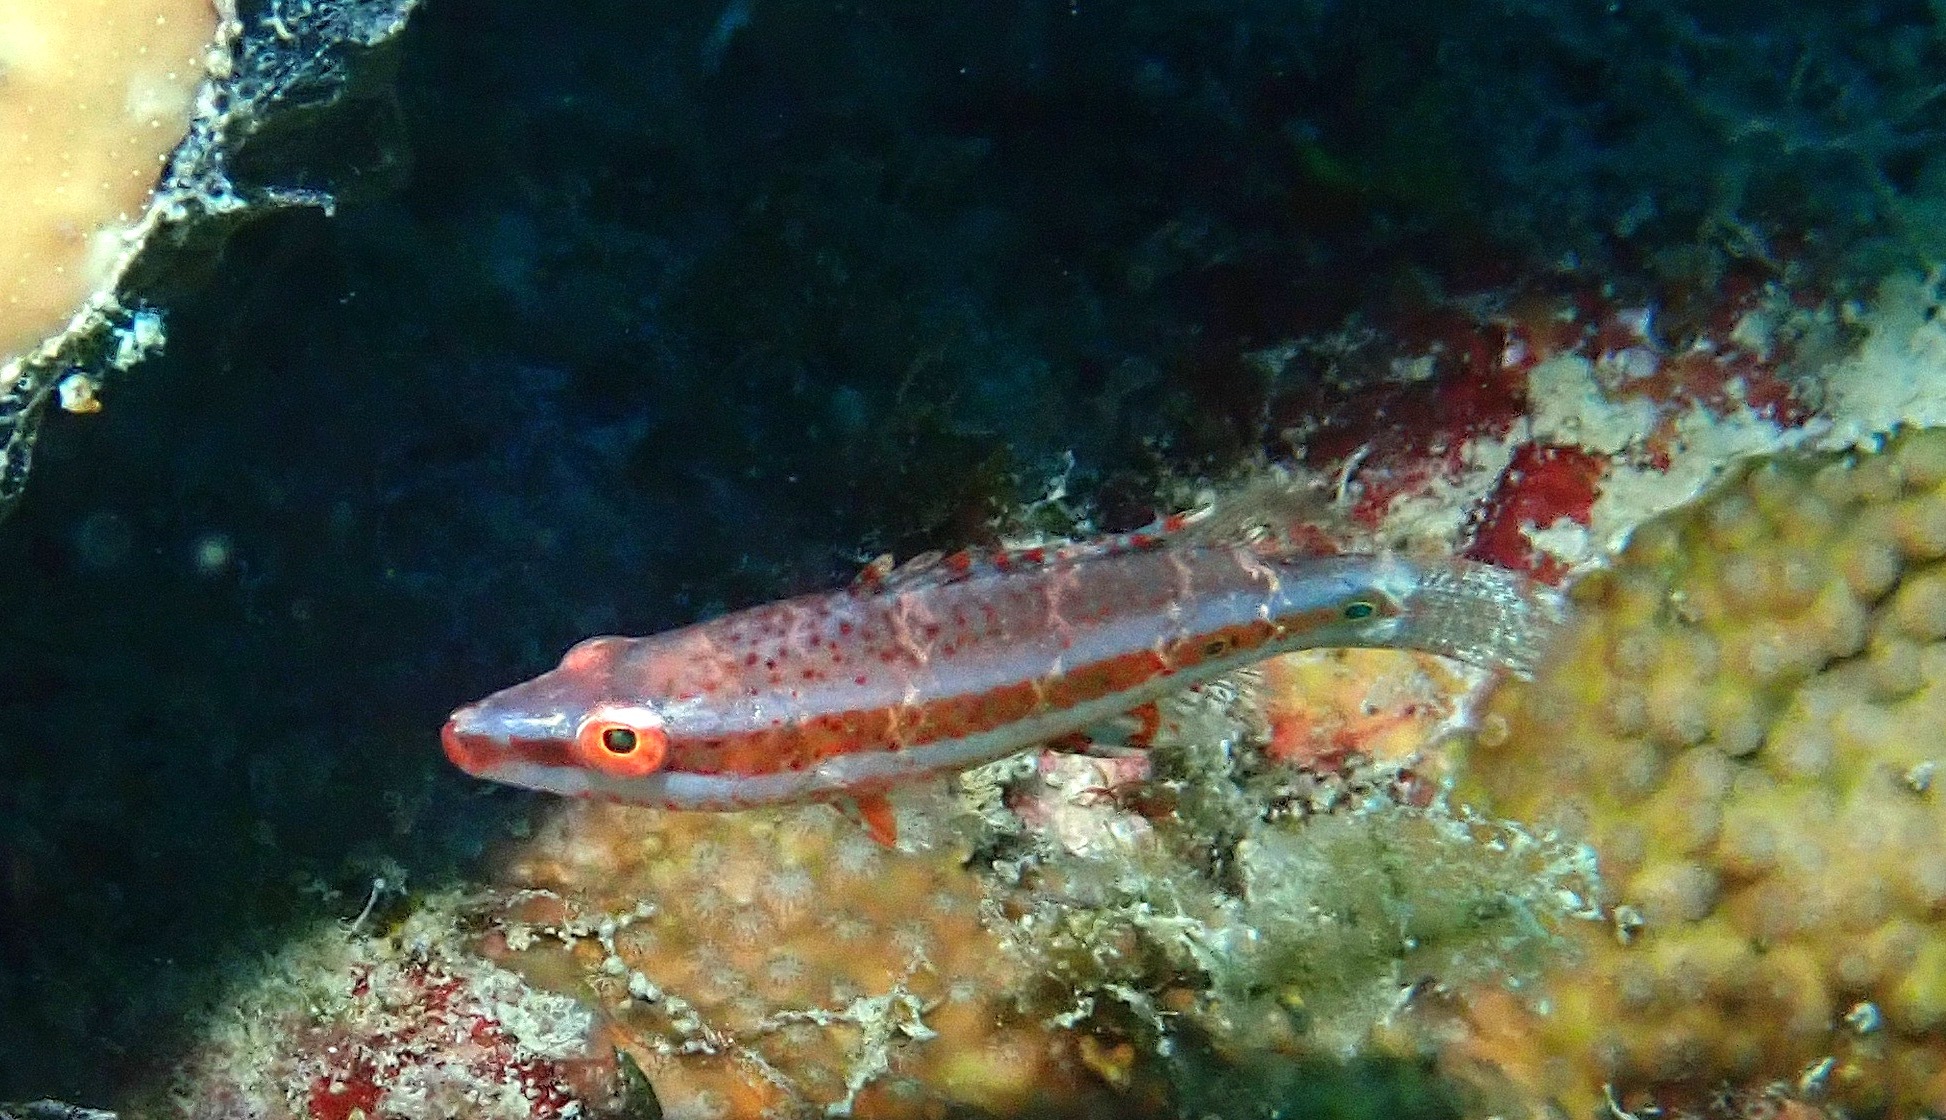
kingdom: Animalia
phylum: Chordata
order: Perciformes
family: Labridae
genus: Oxycheilinus
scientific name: Oxycheilinus digramma
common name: Bandcheek wrasse
